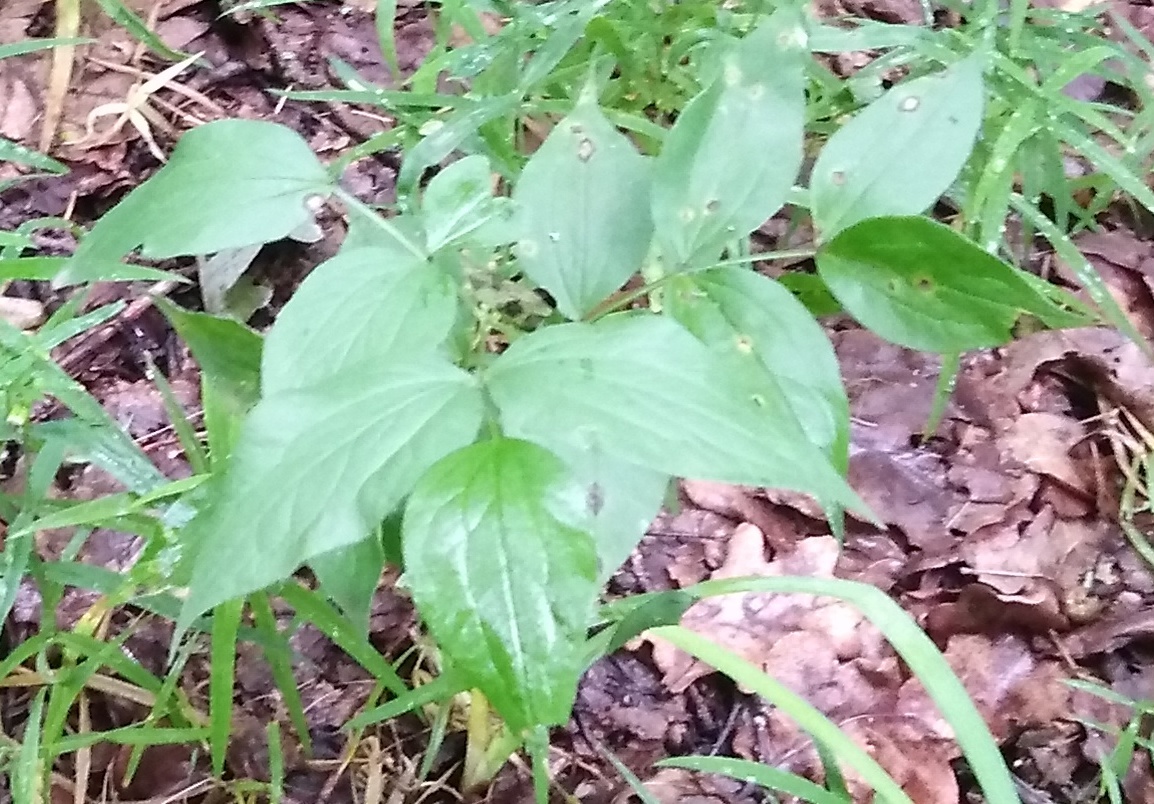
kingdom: Plantae
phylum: Tracheophyta
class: Magnoliopsida
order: Fabales
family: Fabaceae
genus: Lathyrus
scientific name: Lathyrus vernus
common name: Spring pea
